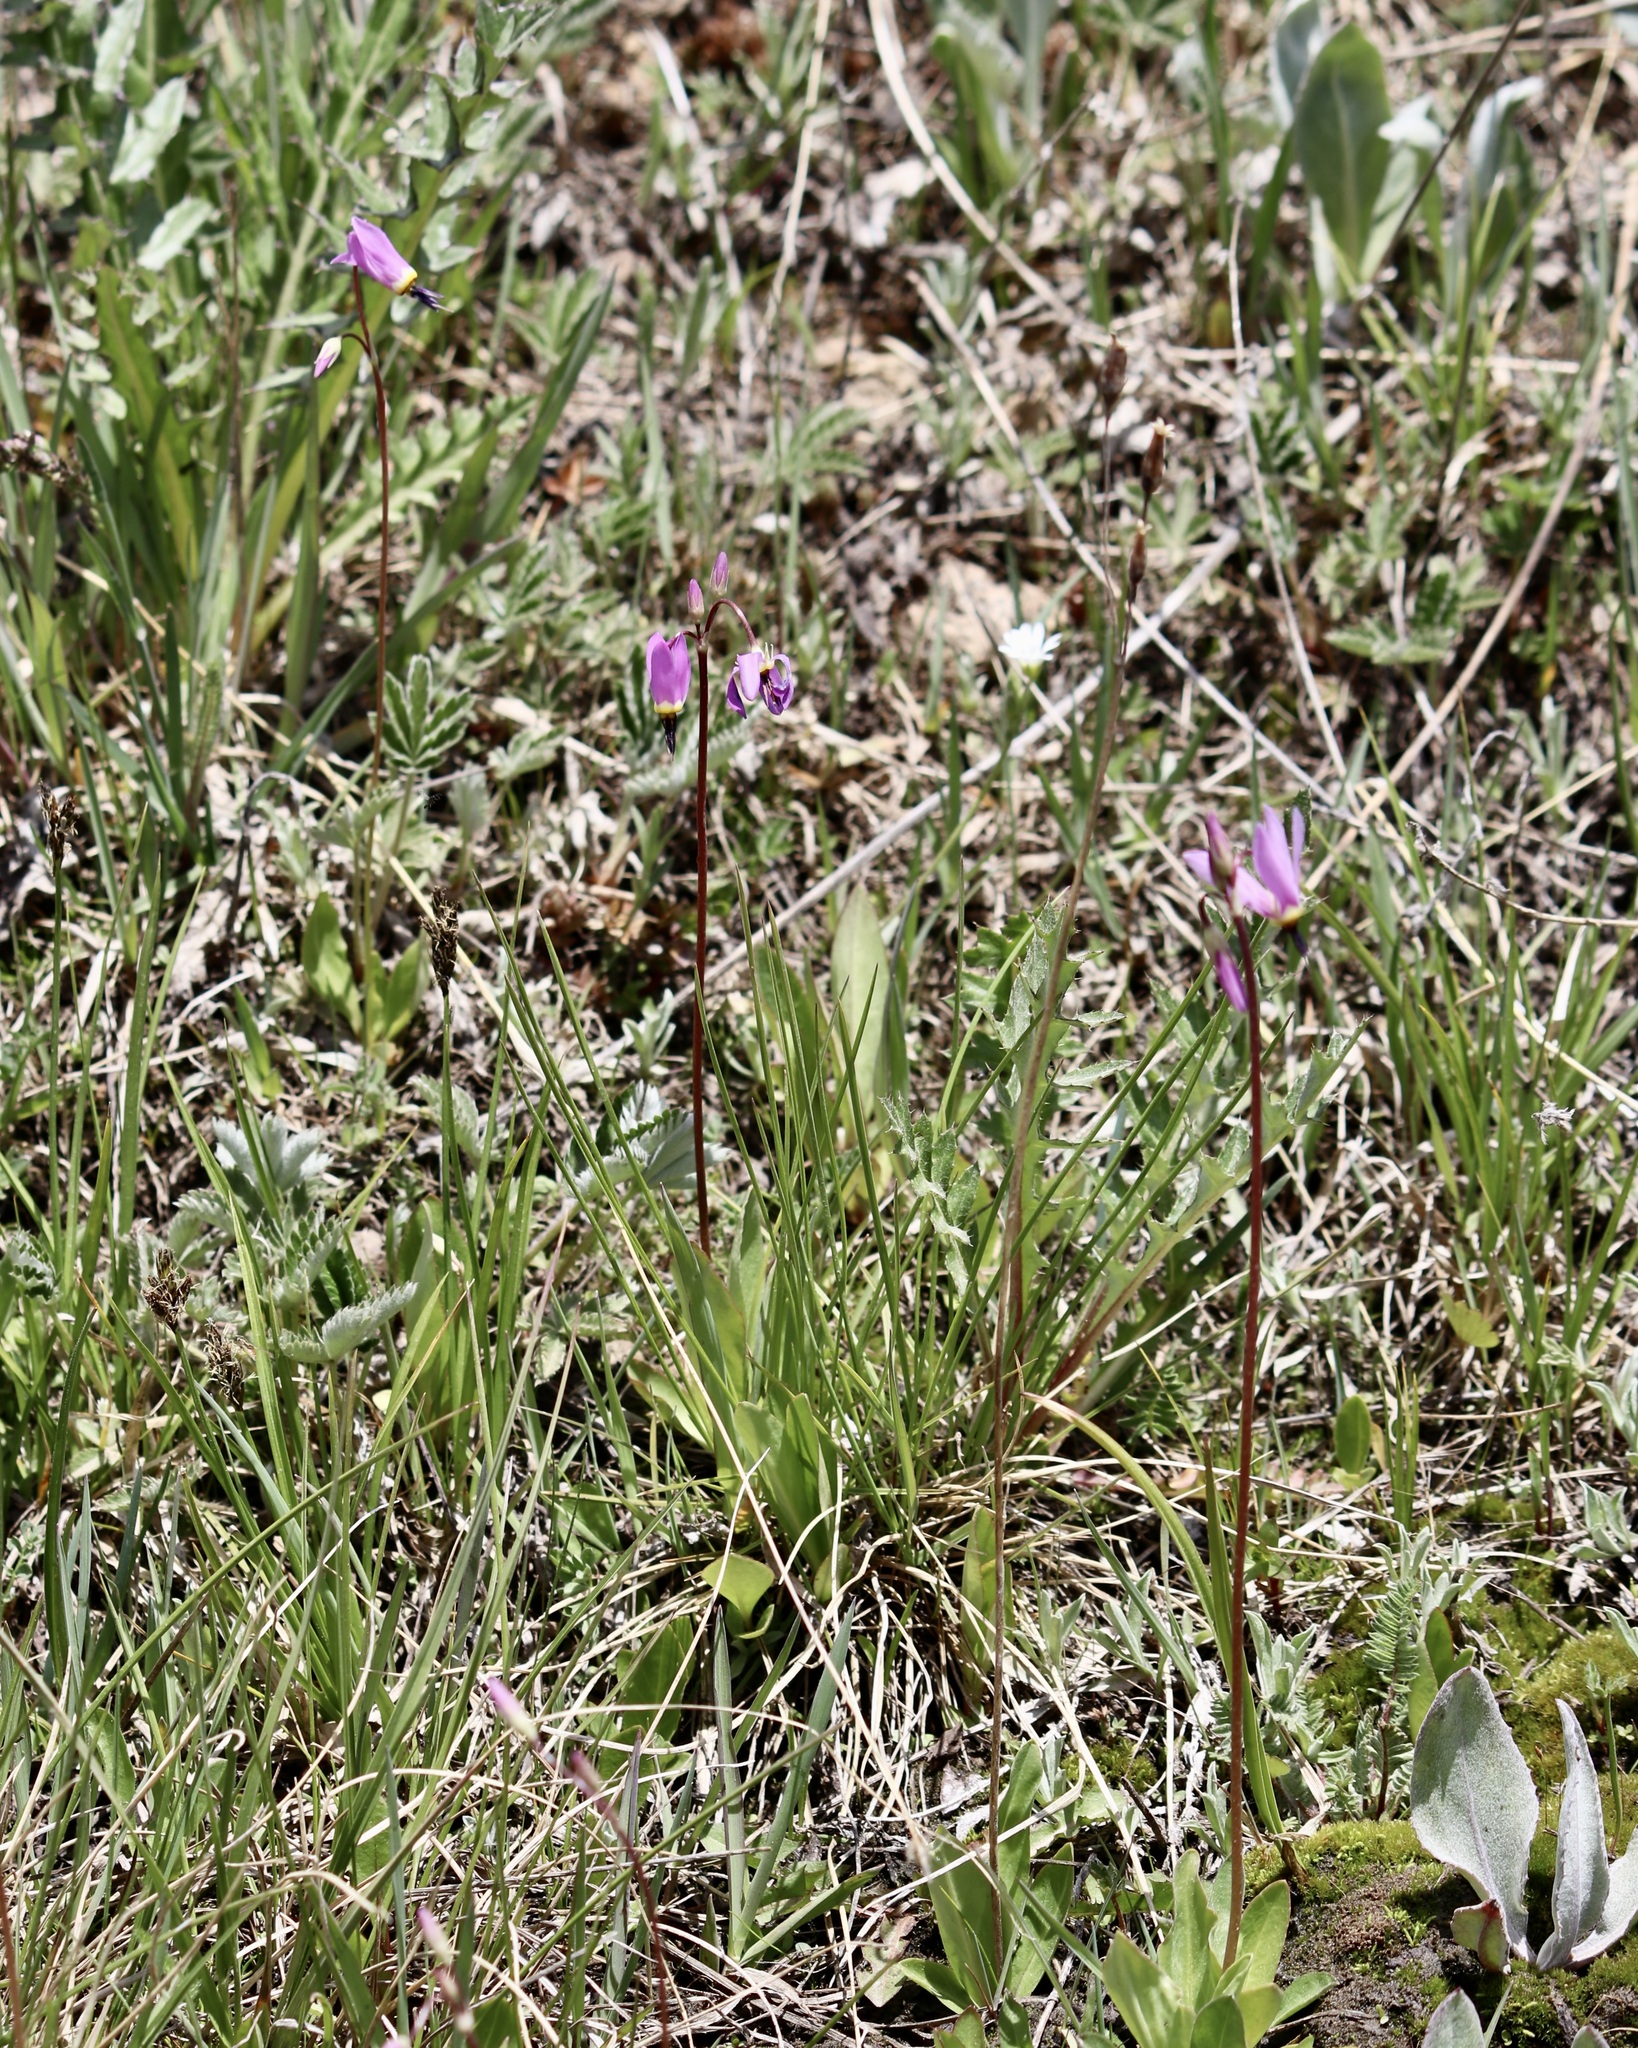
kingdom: Plantae
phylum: Tracheophyta
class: Magnoliopsida
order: Ericales
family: Primulaceae
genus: Dodecatheon
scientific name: Dodecatheon pulchellum
